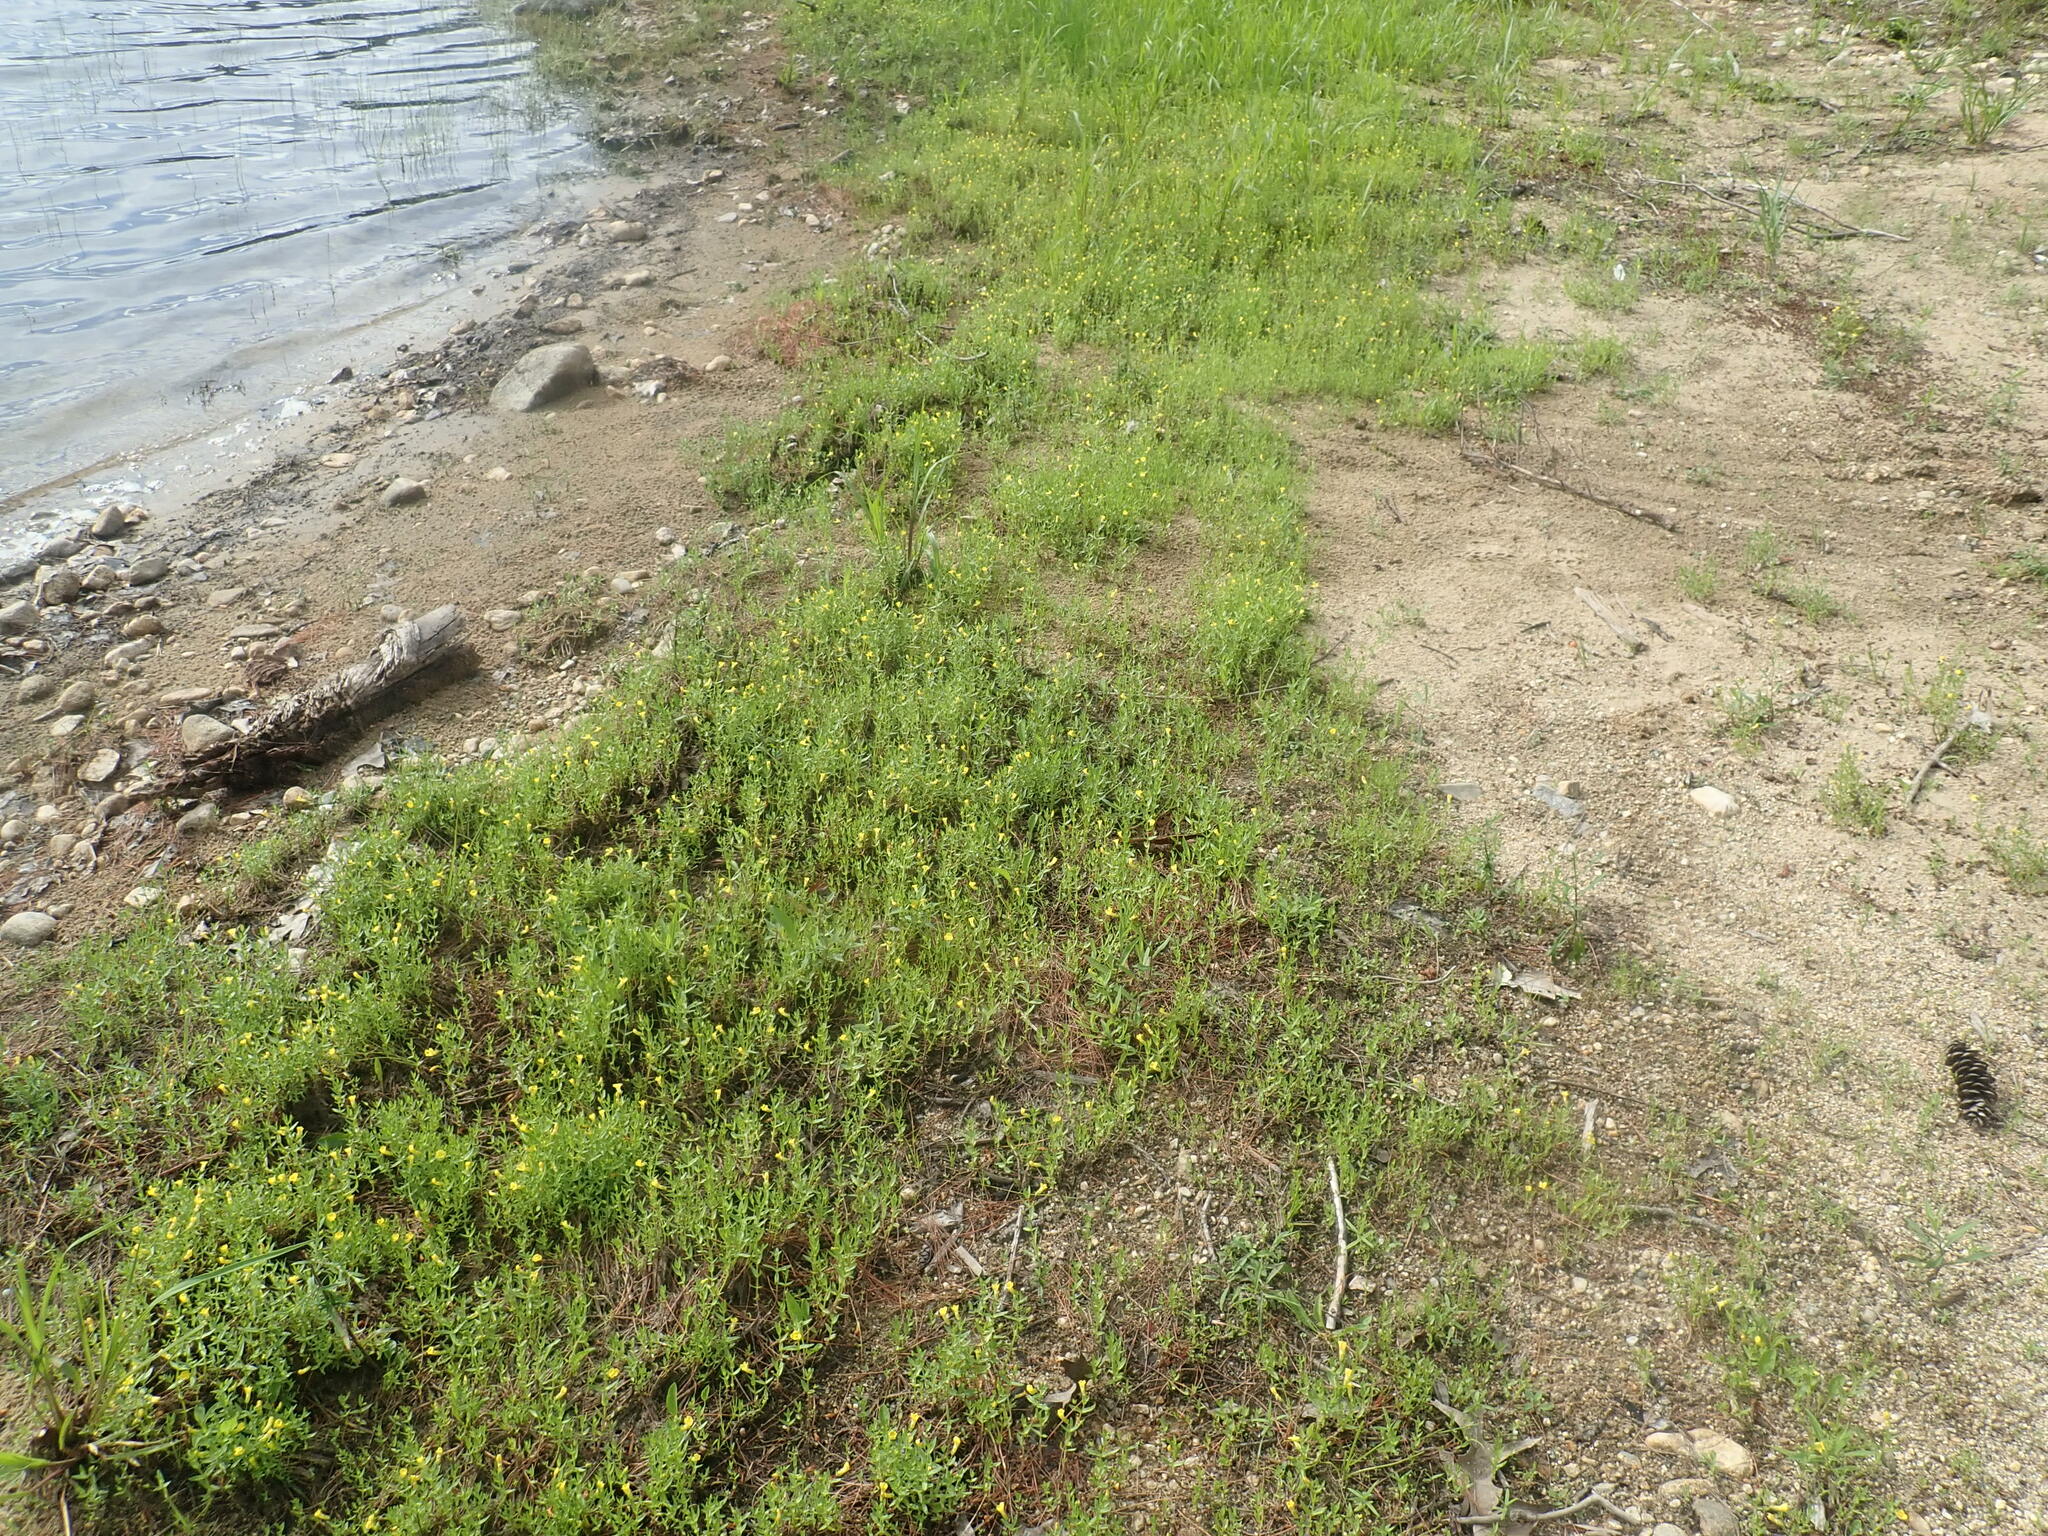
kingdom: Plantae
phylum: Tracheophyta
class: Magnoliopsida
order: Lamiales
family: Plantaginaceae
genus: Gratiola
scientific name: Gratiola lutea
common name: Golden hedge-hyssop
